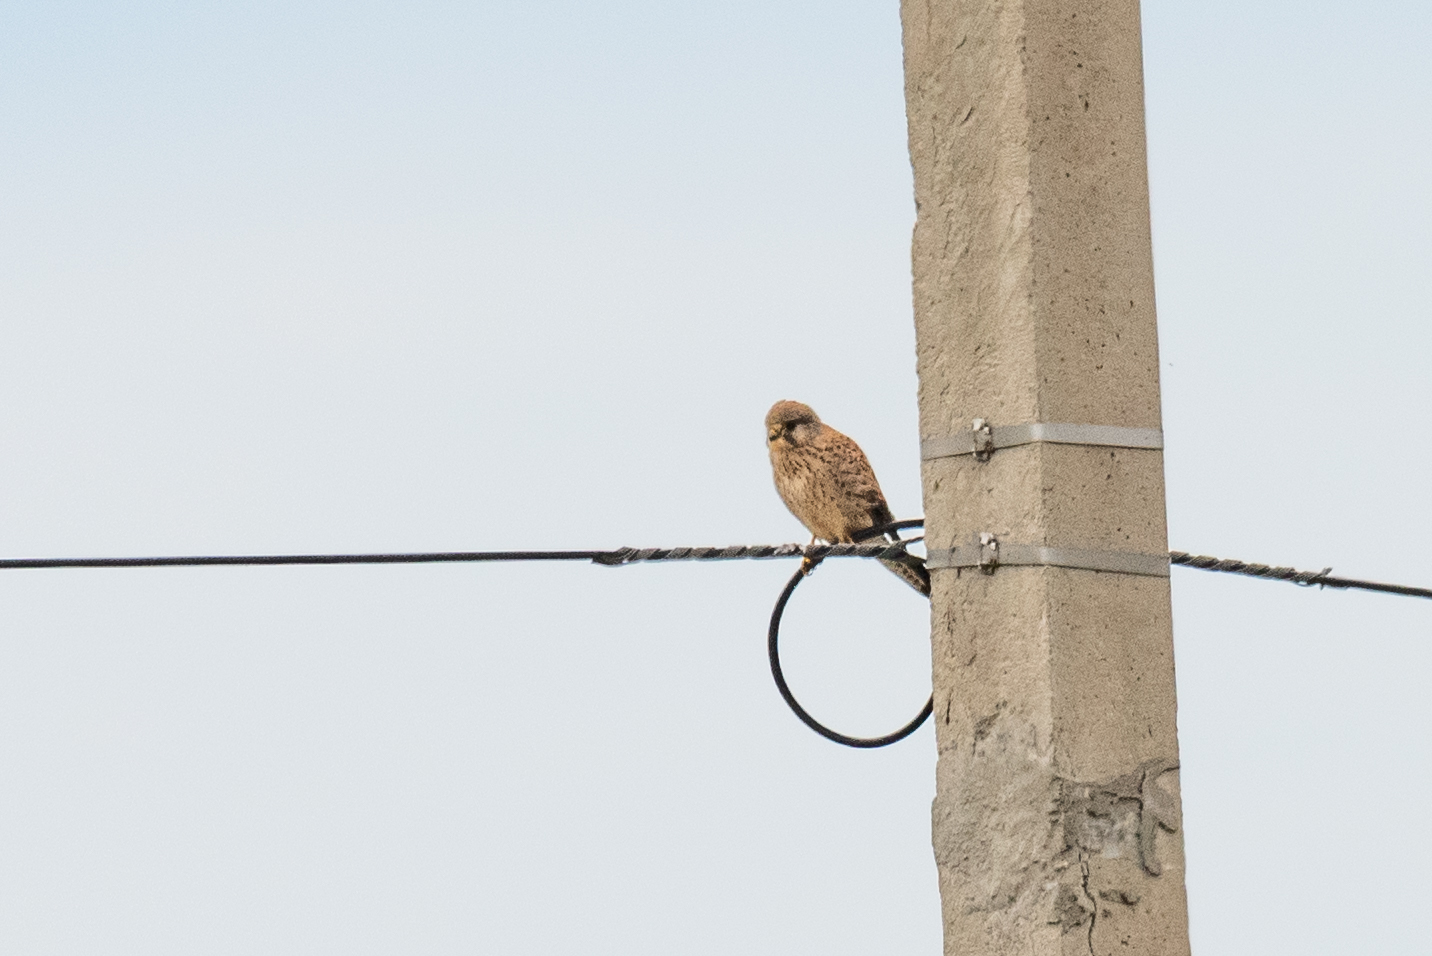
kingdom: Animalia
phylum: Chordata
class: Aves
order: Falconiformes
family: Falconidae
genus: Falco
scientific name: Falco tinnunculus
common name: Common kestrel
